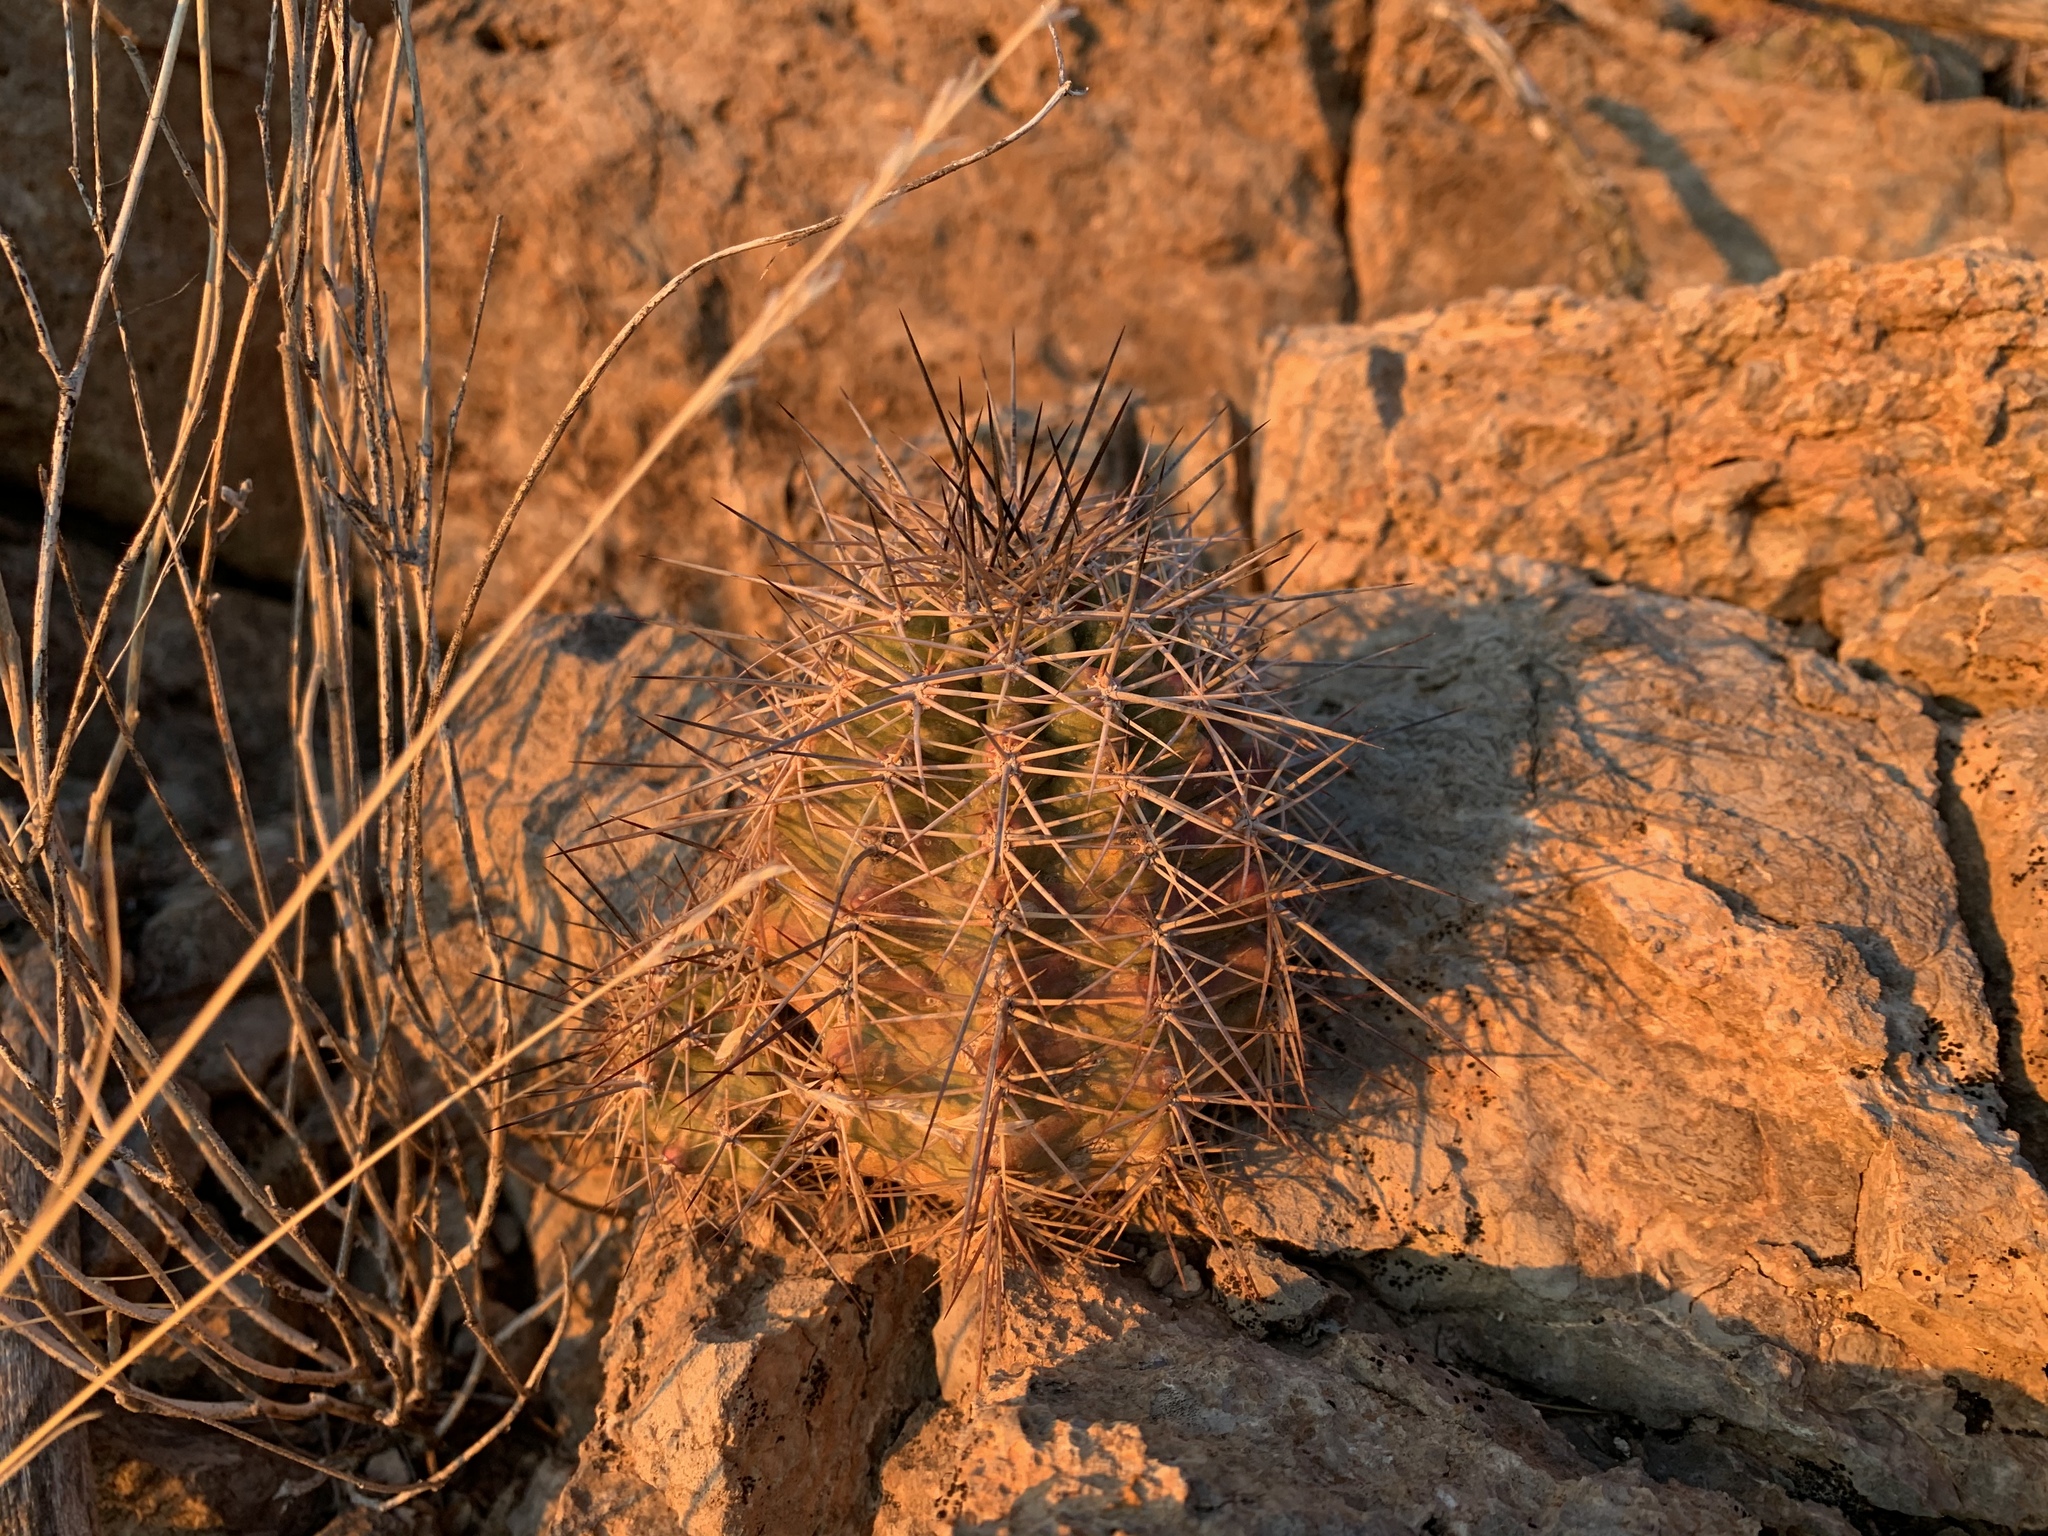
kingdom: Plantae
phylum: Tracheophyta
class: Magnoliopsida
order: Caryophyllales
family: Cactaceae
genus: Echinocereus
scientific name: Echinocereus coccineus
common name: Scarlet hedgehog cactus
